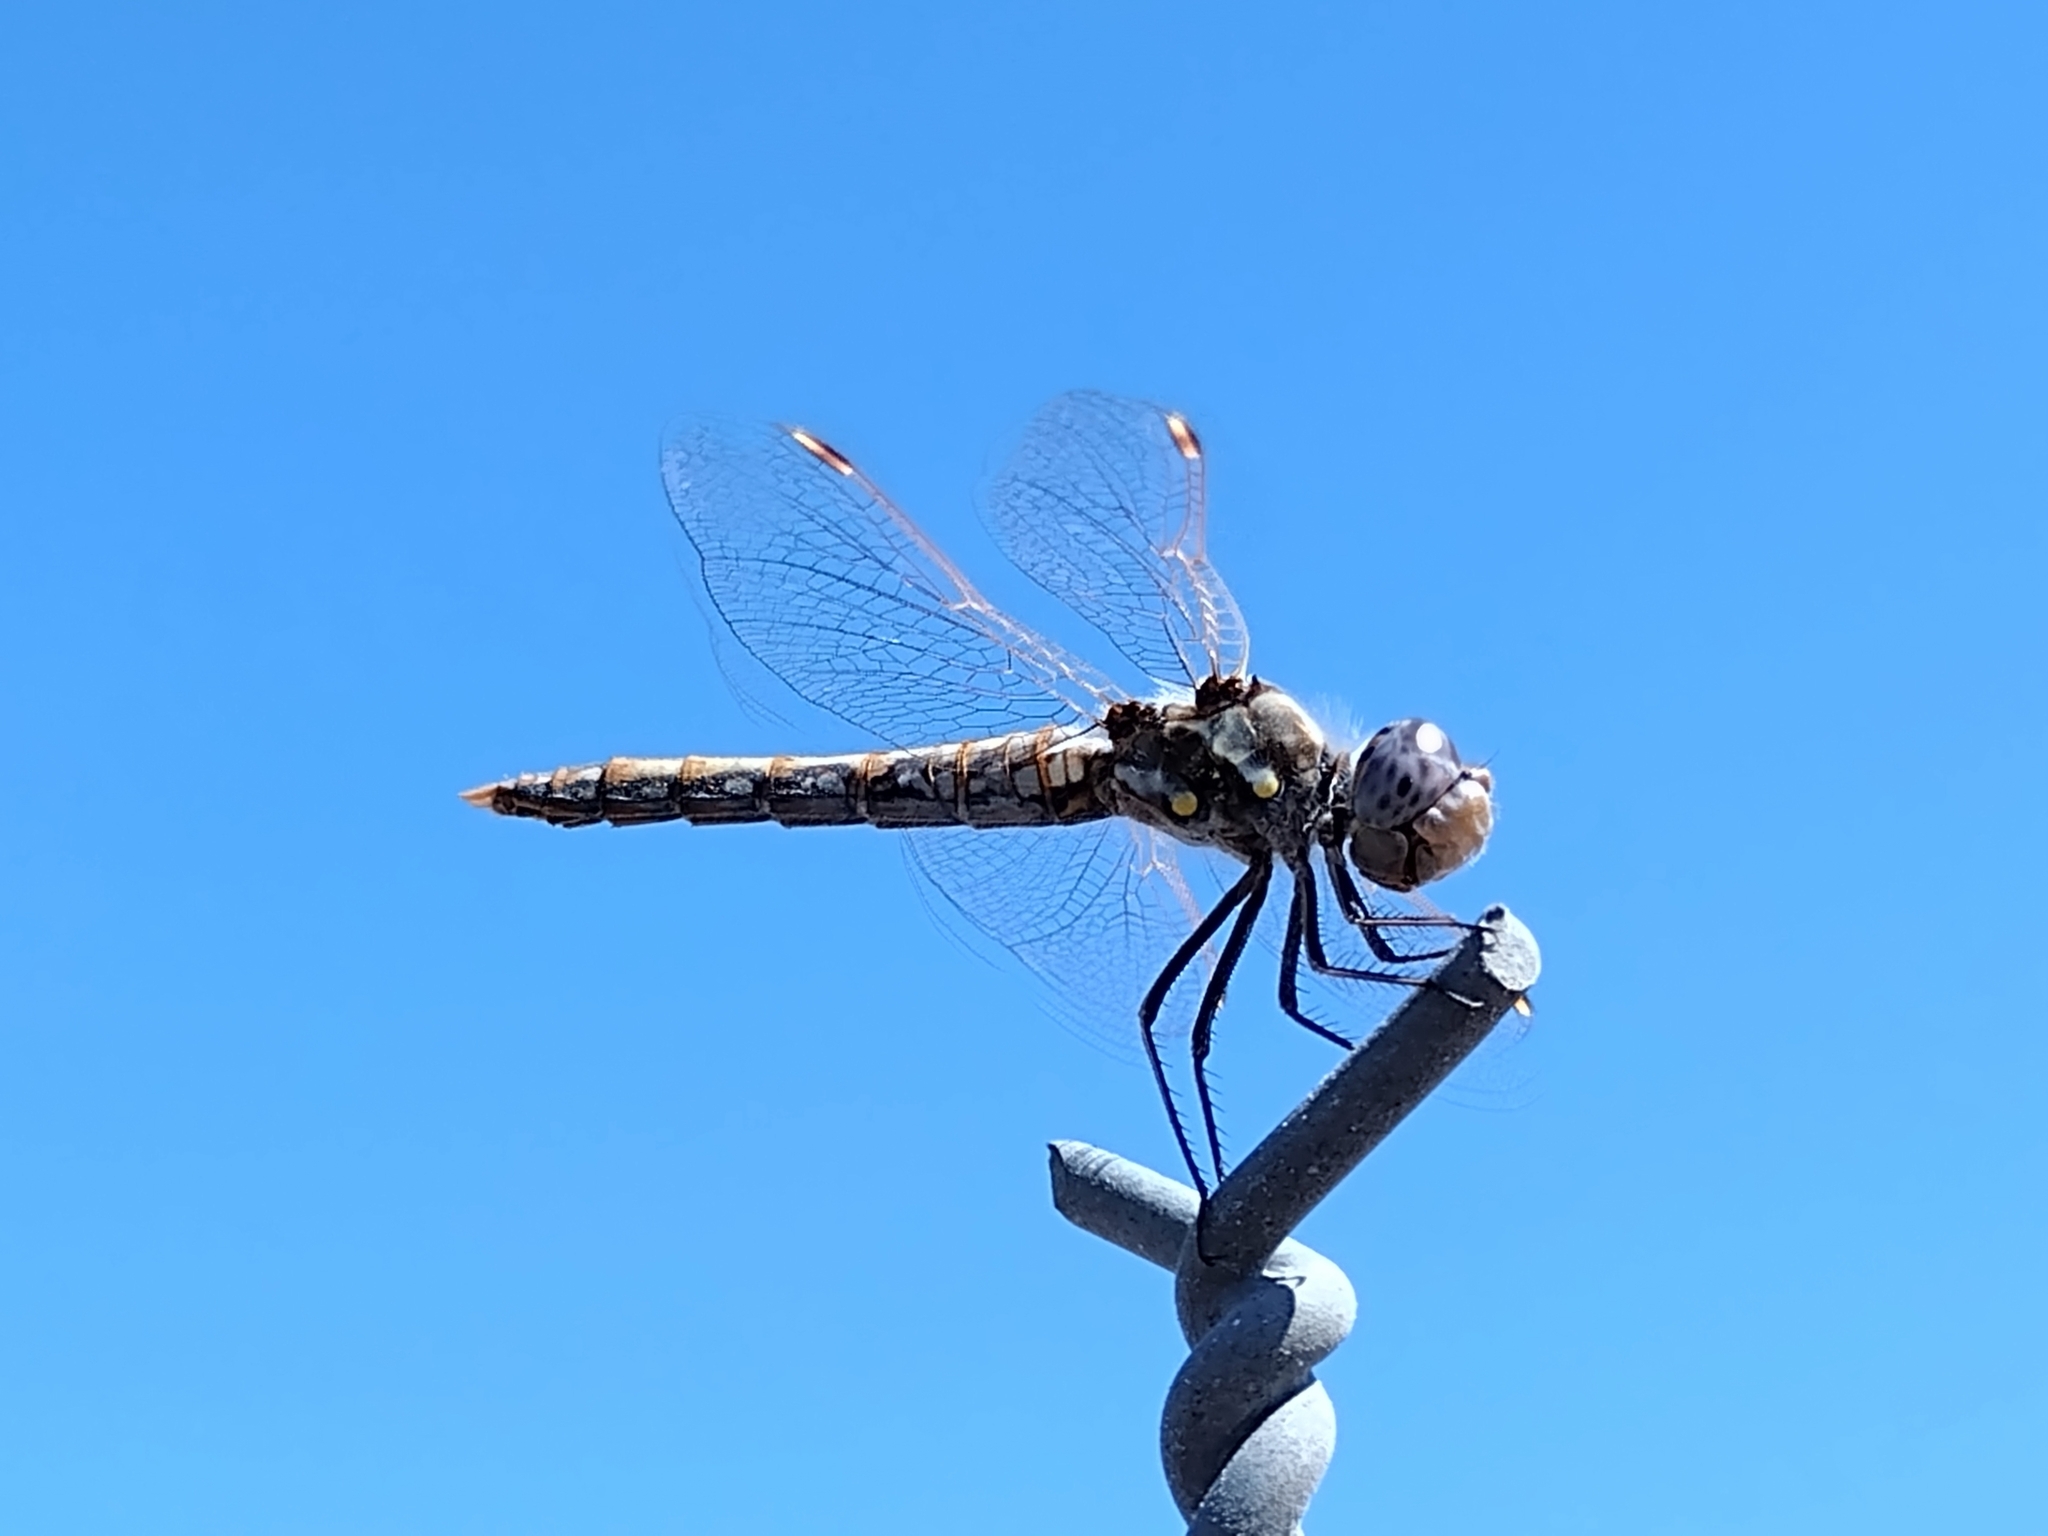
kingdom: Animalia
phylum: Arthropoda
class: Insecta
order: Odonata
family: Libellulidae
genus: Sympetrum
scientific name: Sympetrum corruptum
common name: Variegated meadowhawk
